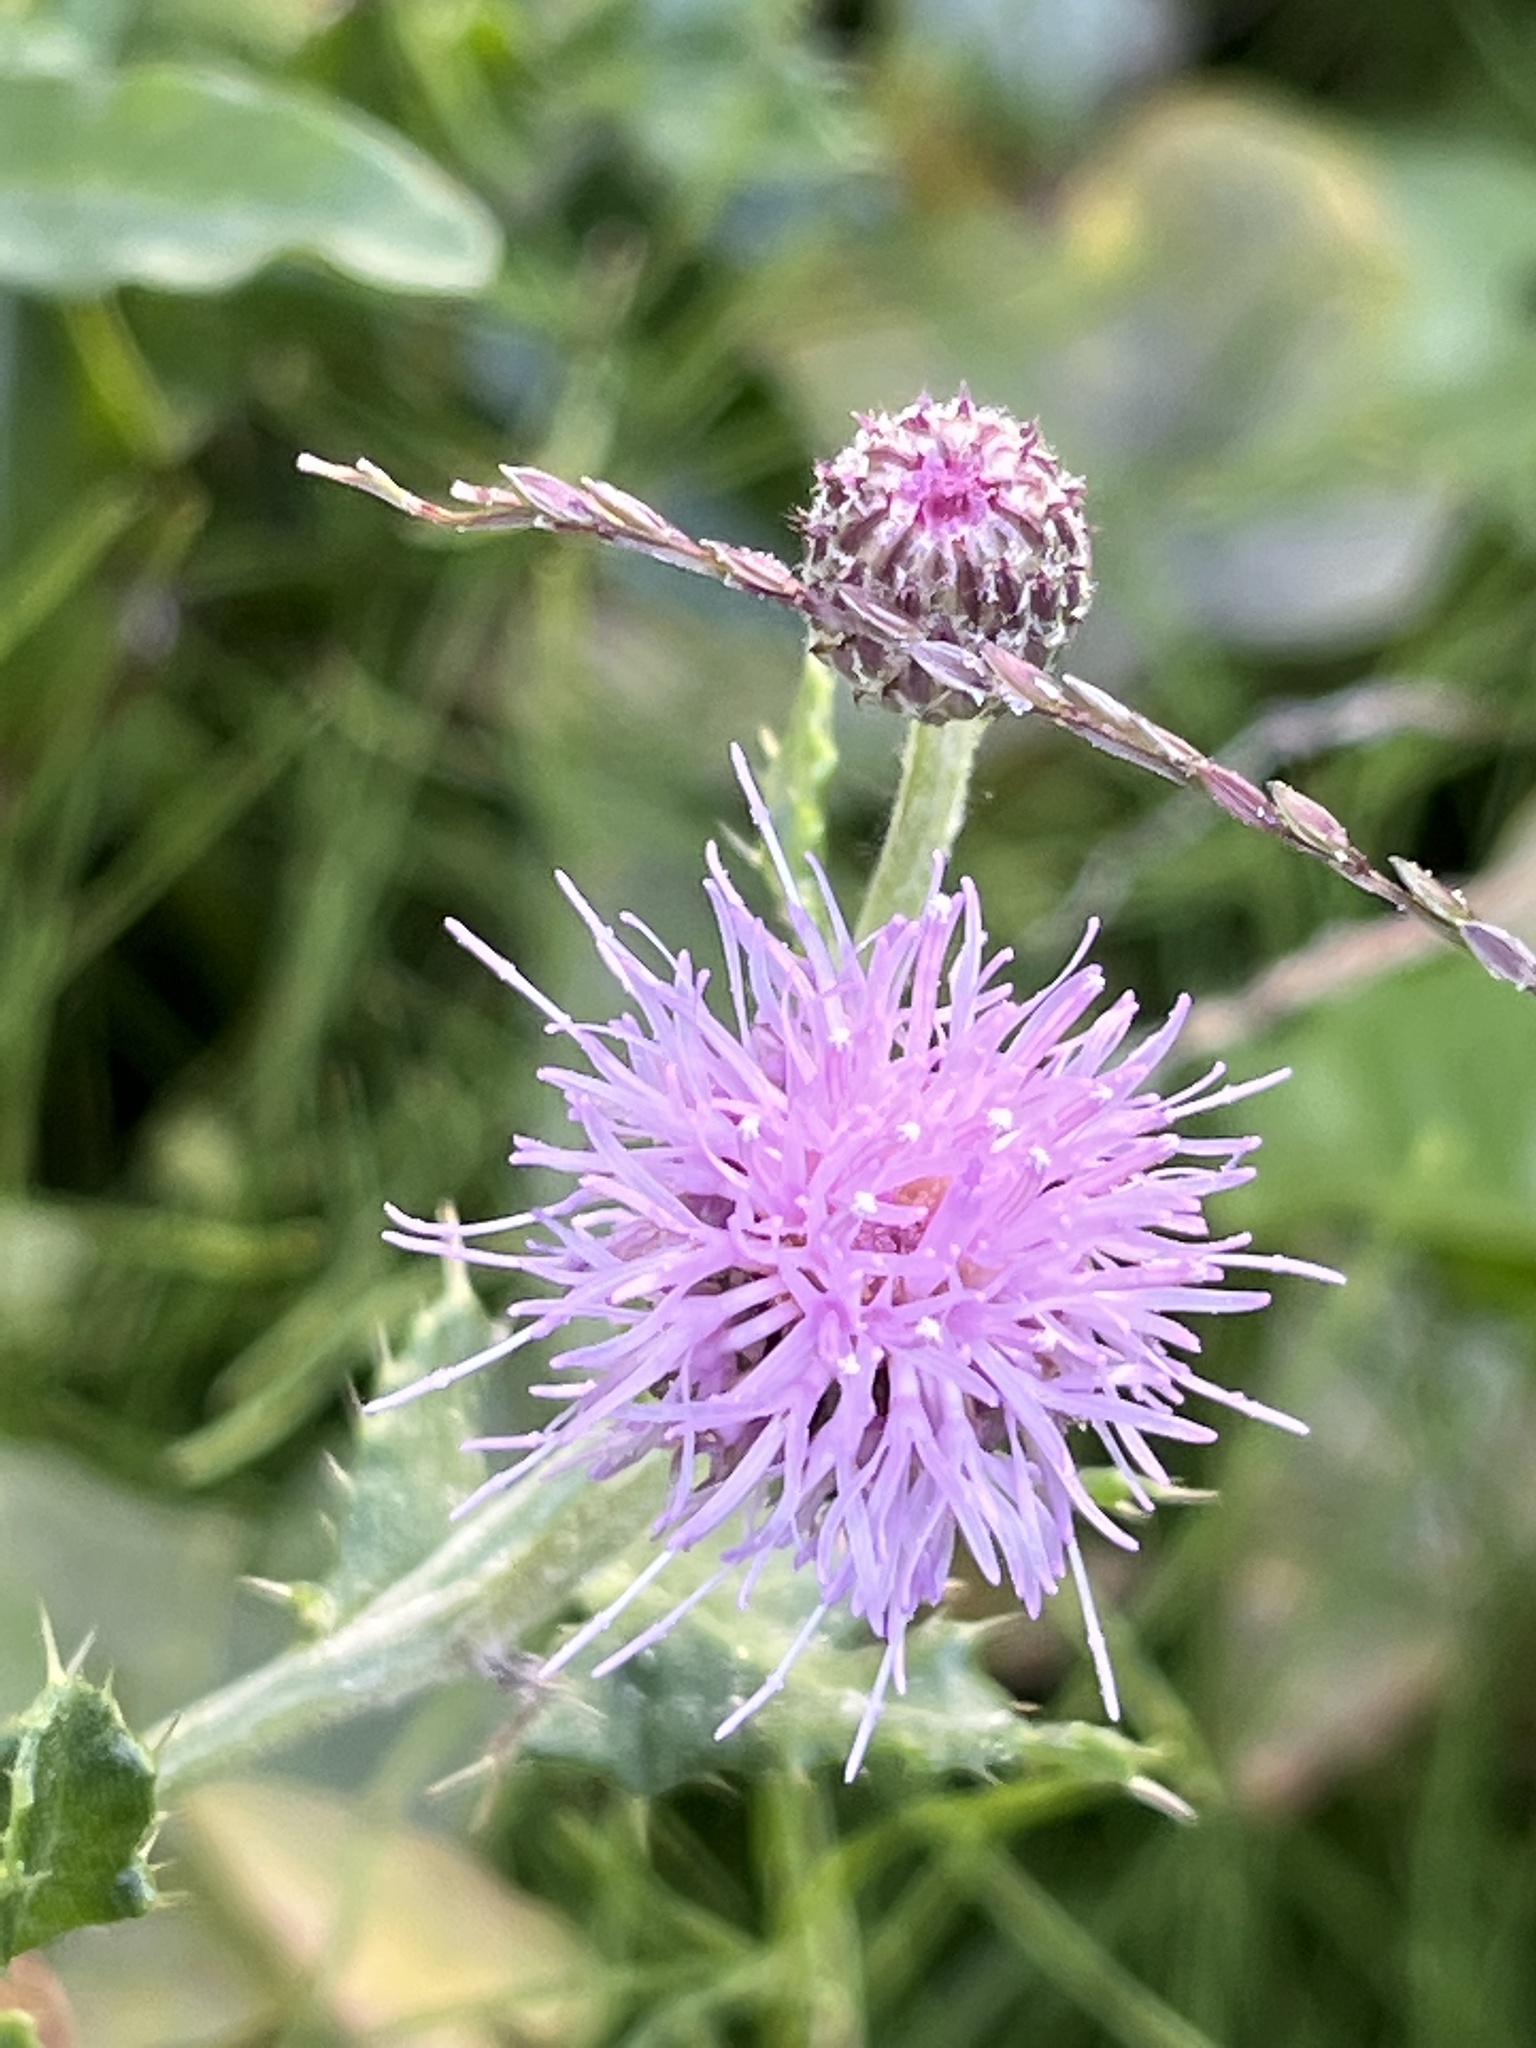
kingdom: Plantae
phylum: Tracheophyta
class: Magnoliopsida
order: Asterales
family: Asteraceae
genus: Cirsium
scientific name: Cirsium arvense
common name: Creeping thistle
